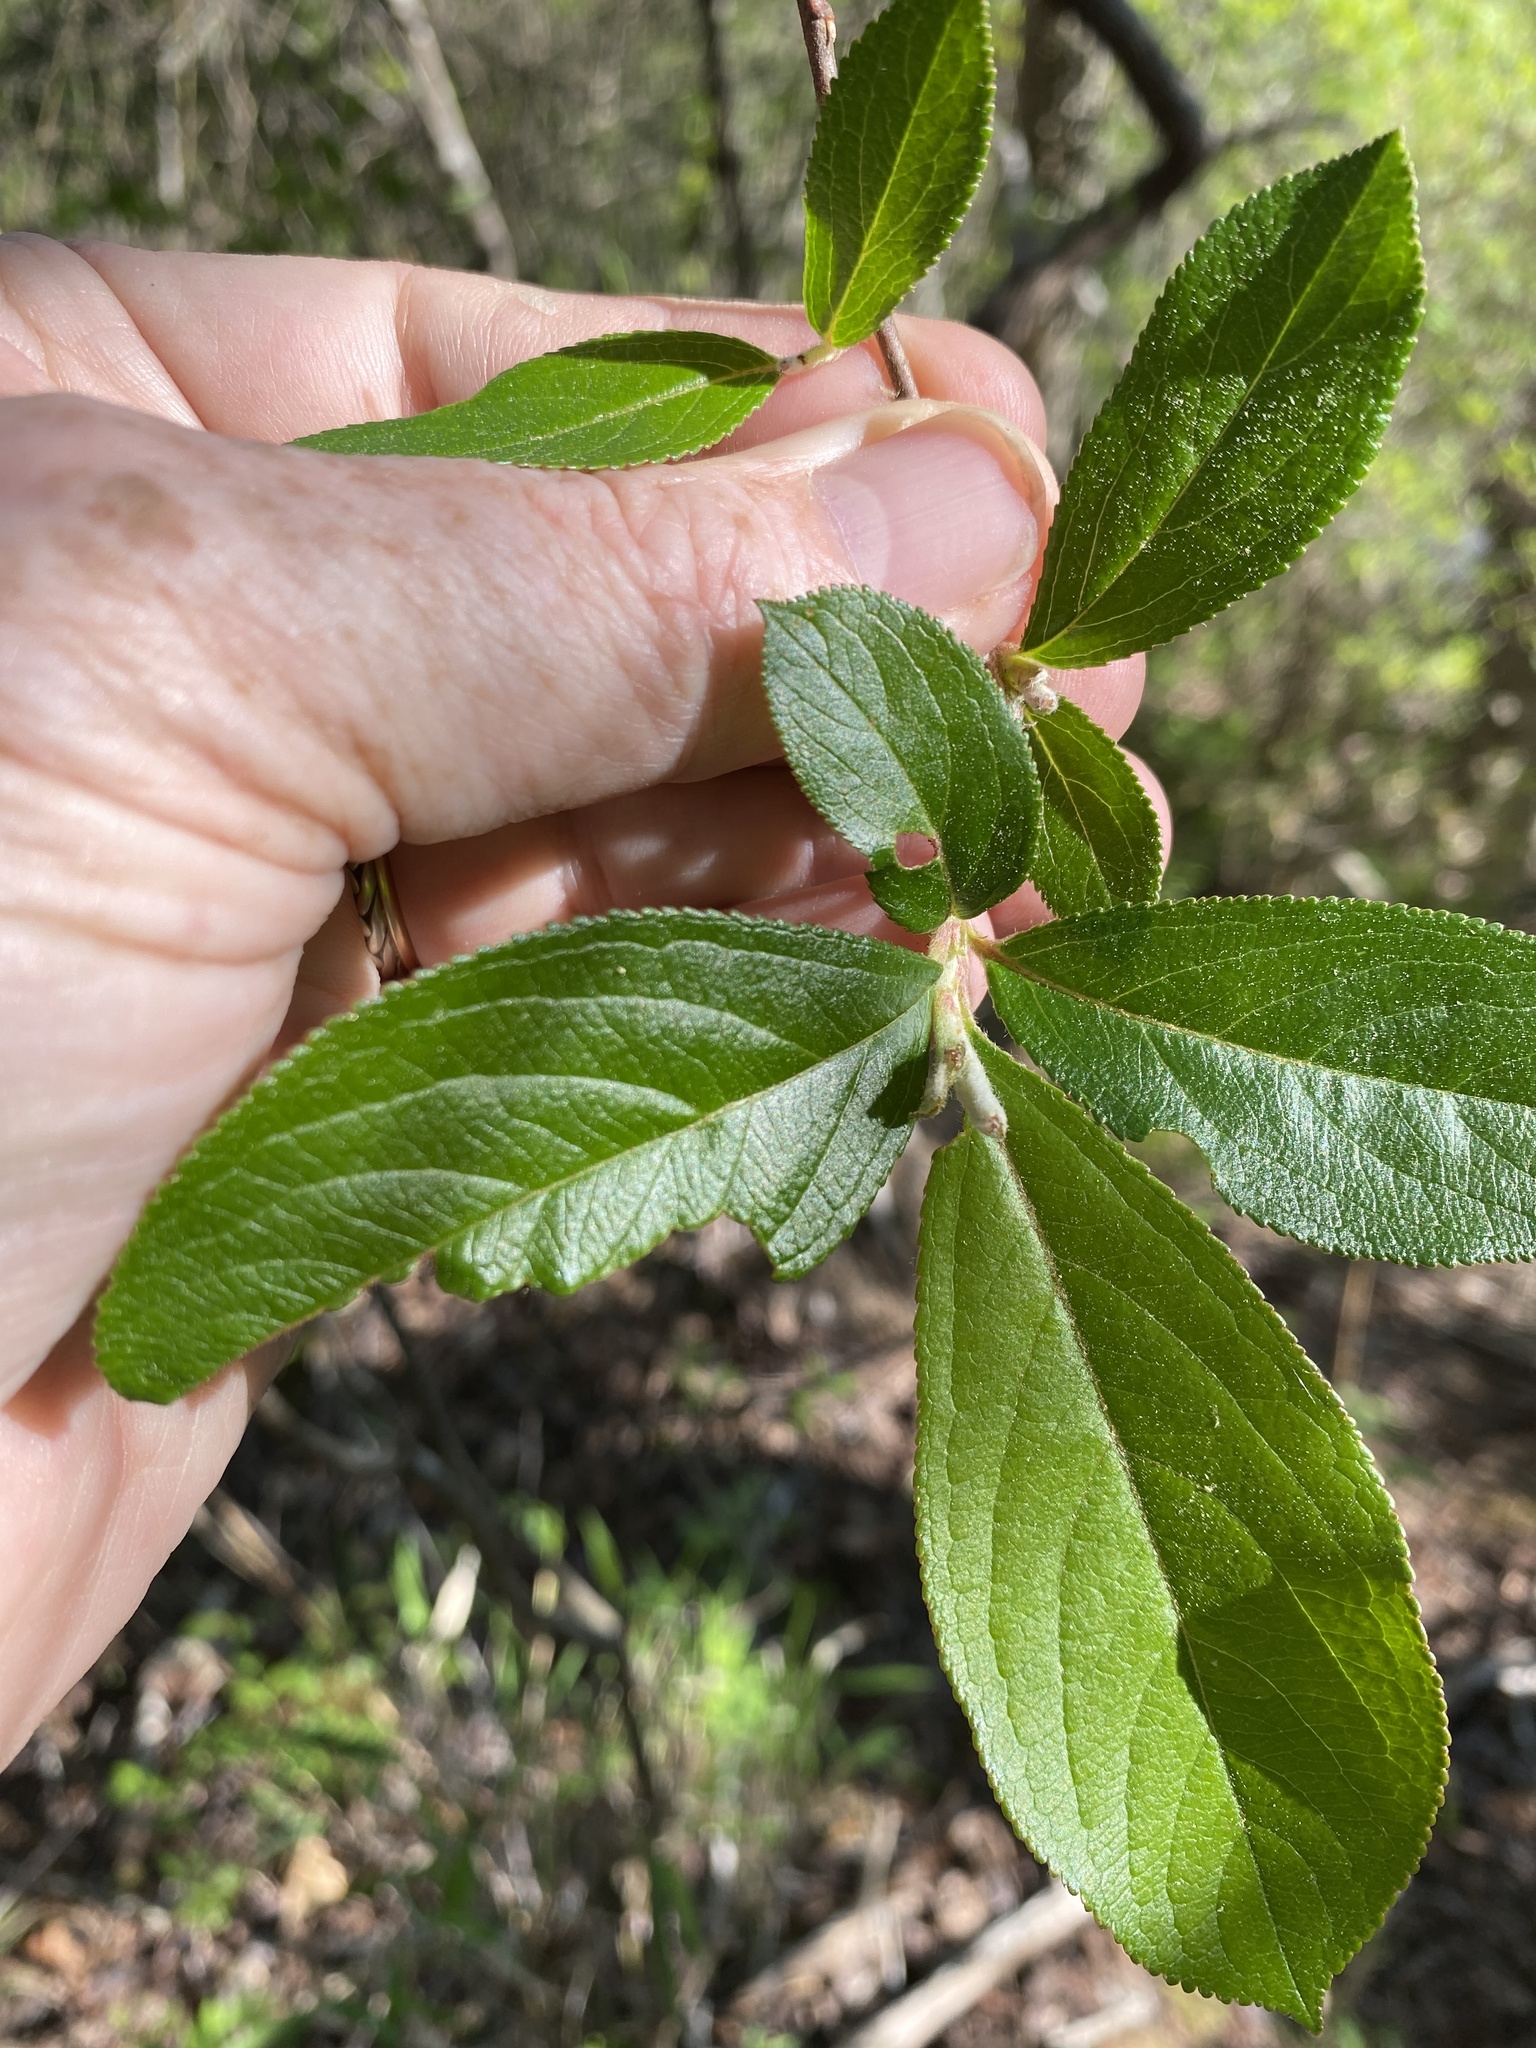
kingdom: Plantae
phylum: Tracheophyta
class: Magnoliopsida
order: Rosales
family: Rosaceae
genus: Aronia
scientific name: Aronia prunifolia
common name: Purple chokeberry
